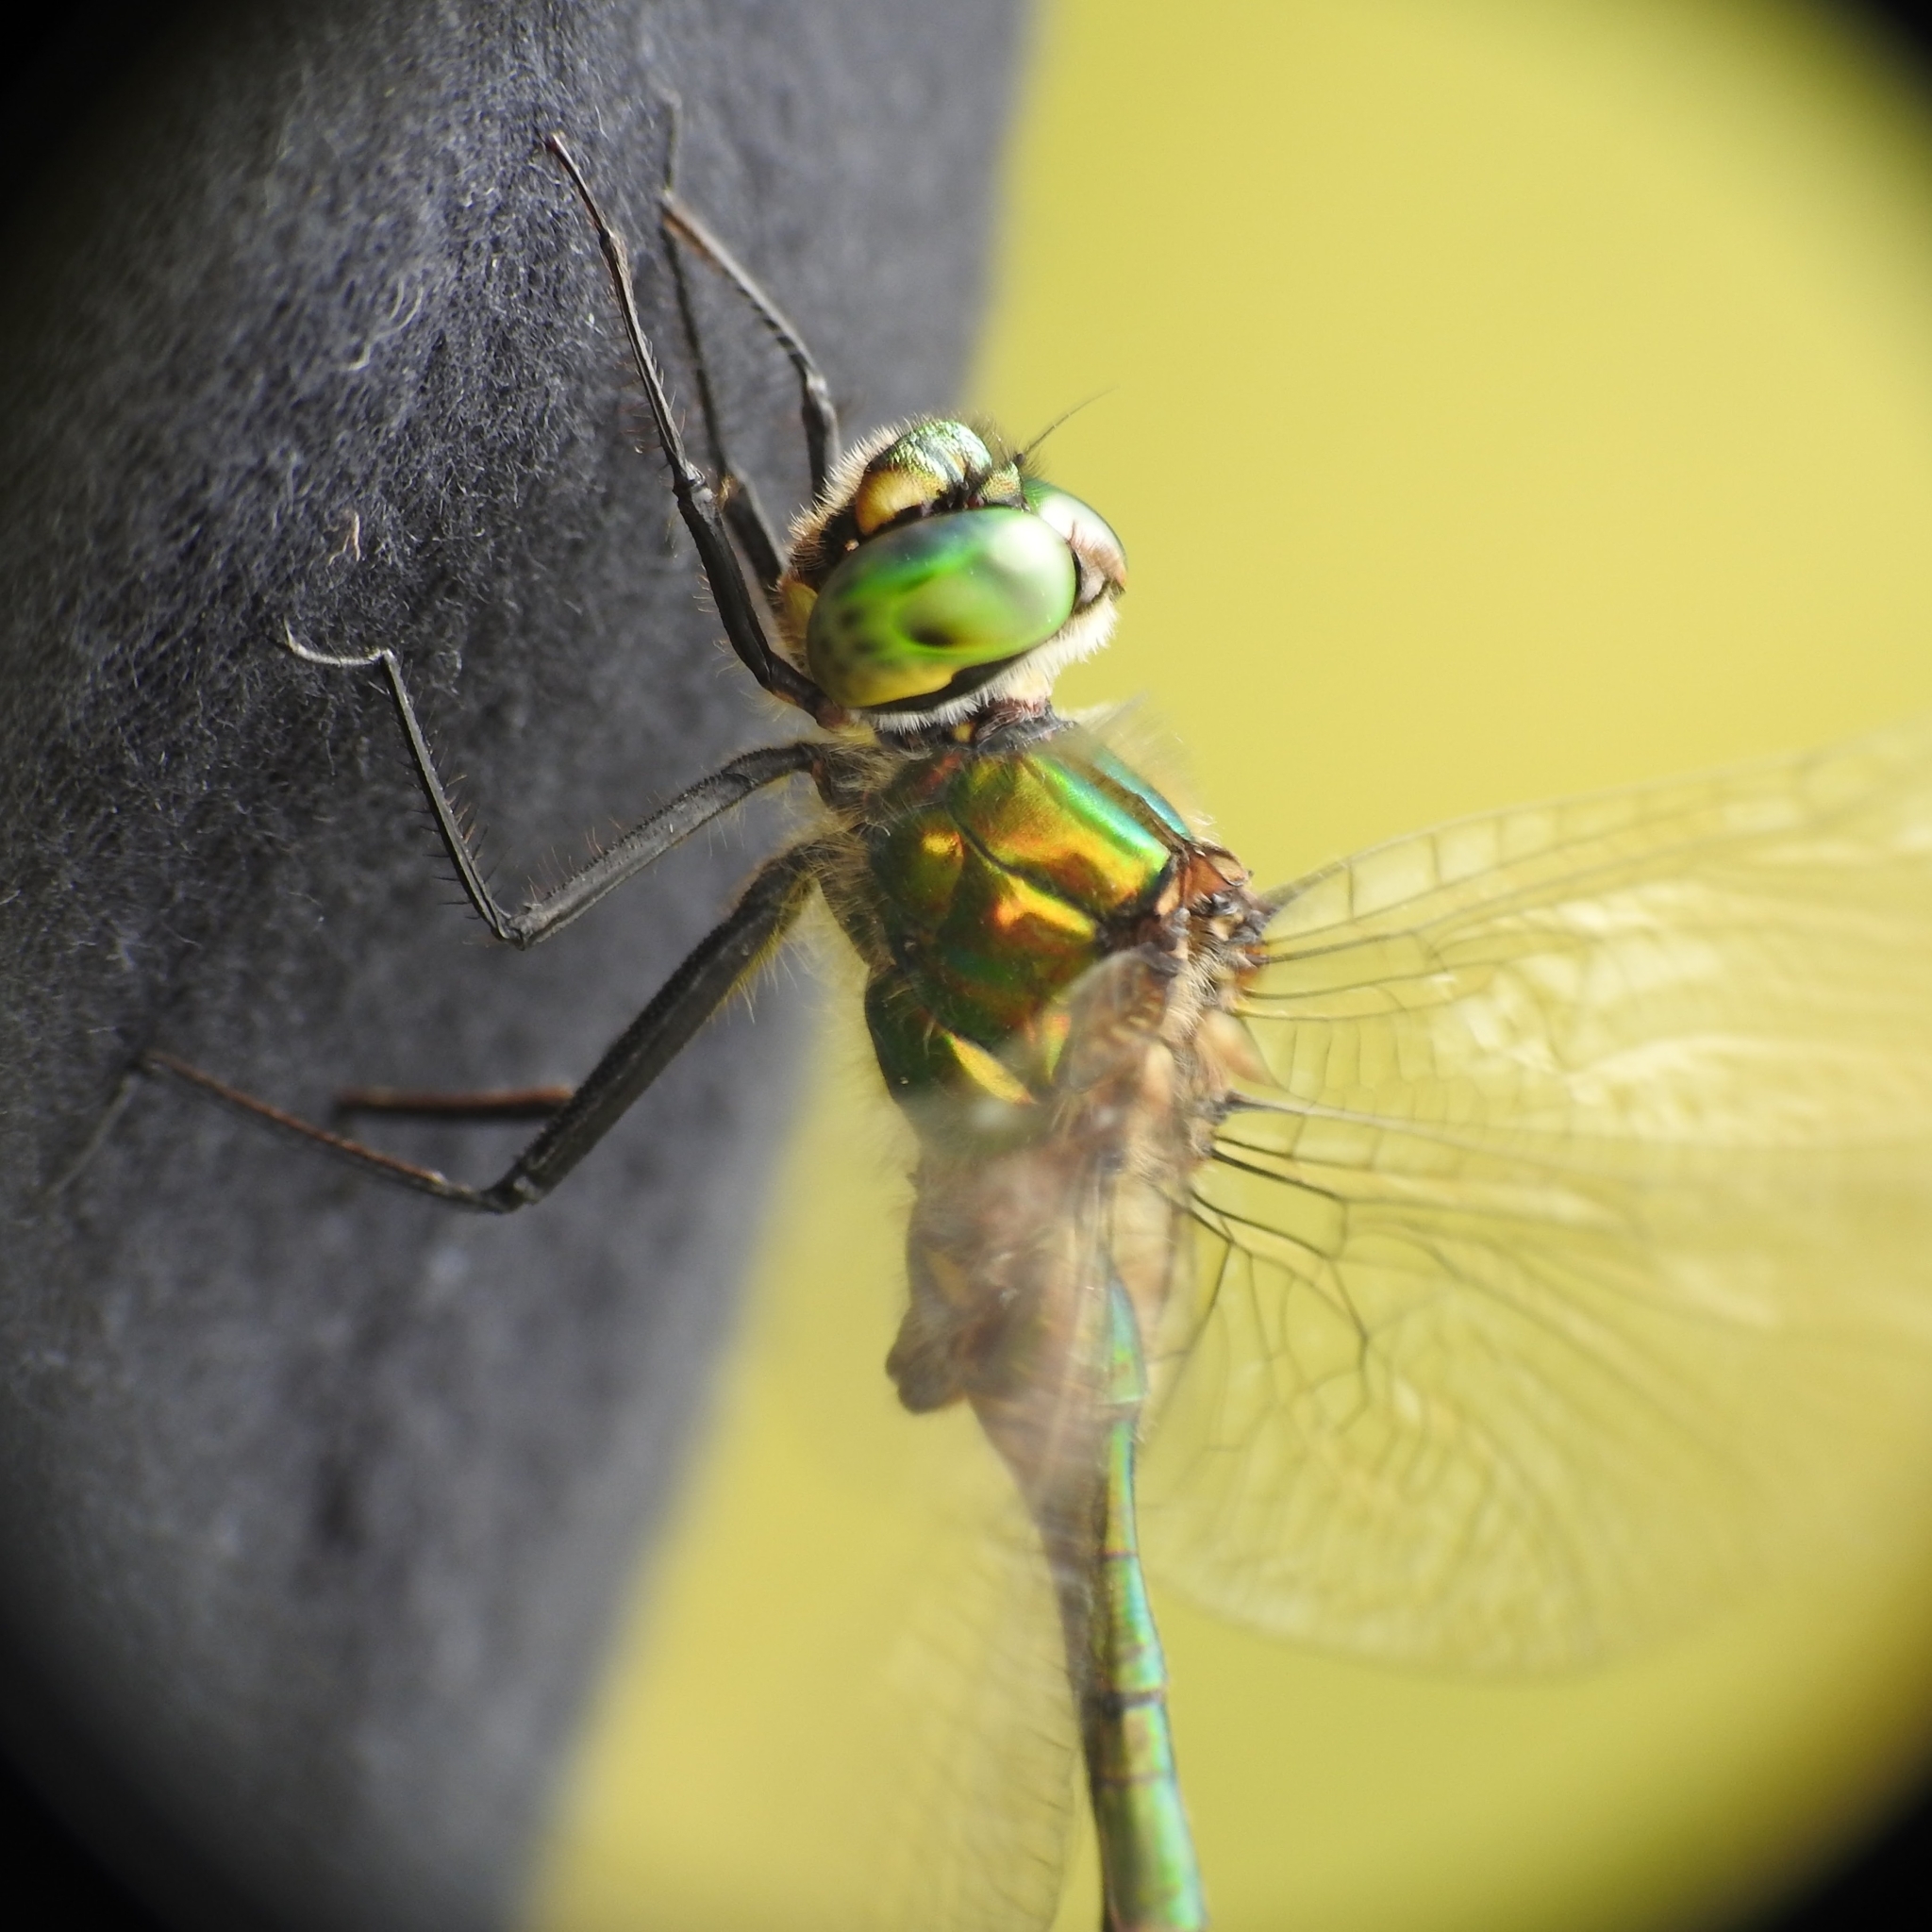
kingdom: Animalia
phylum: Arthropoda
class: Insecta
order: Odonata
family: Corduliidae
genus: Somatochlora
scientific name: Somatochlora metallica
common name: Brilliant emerald
